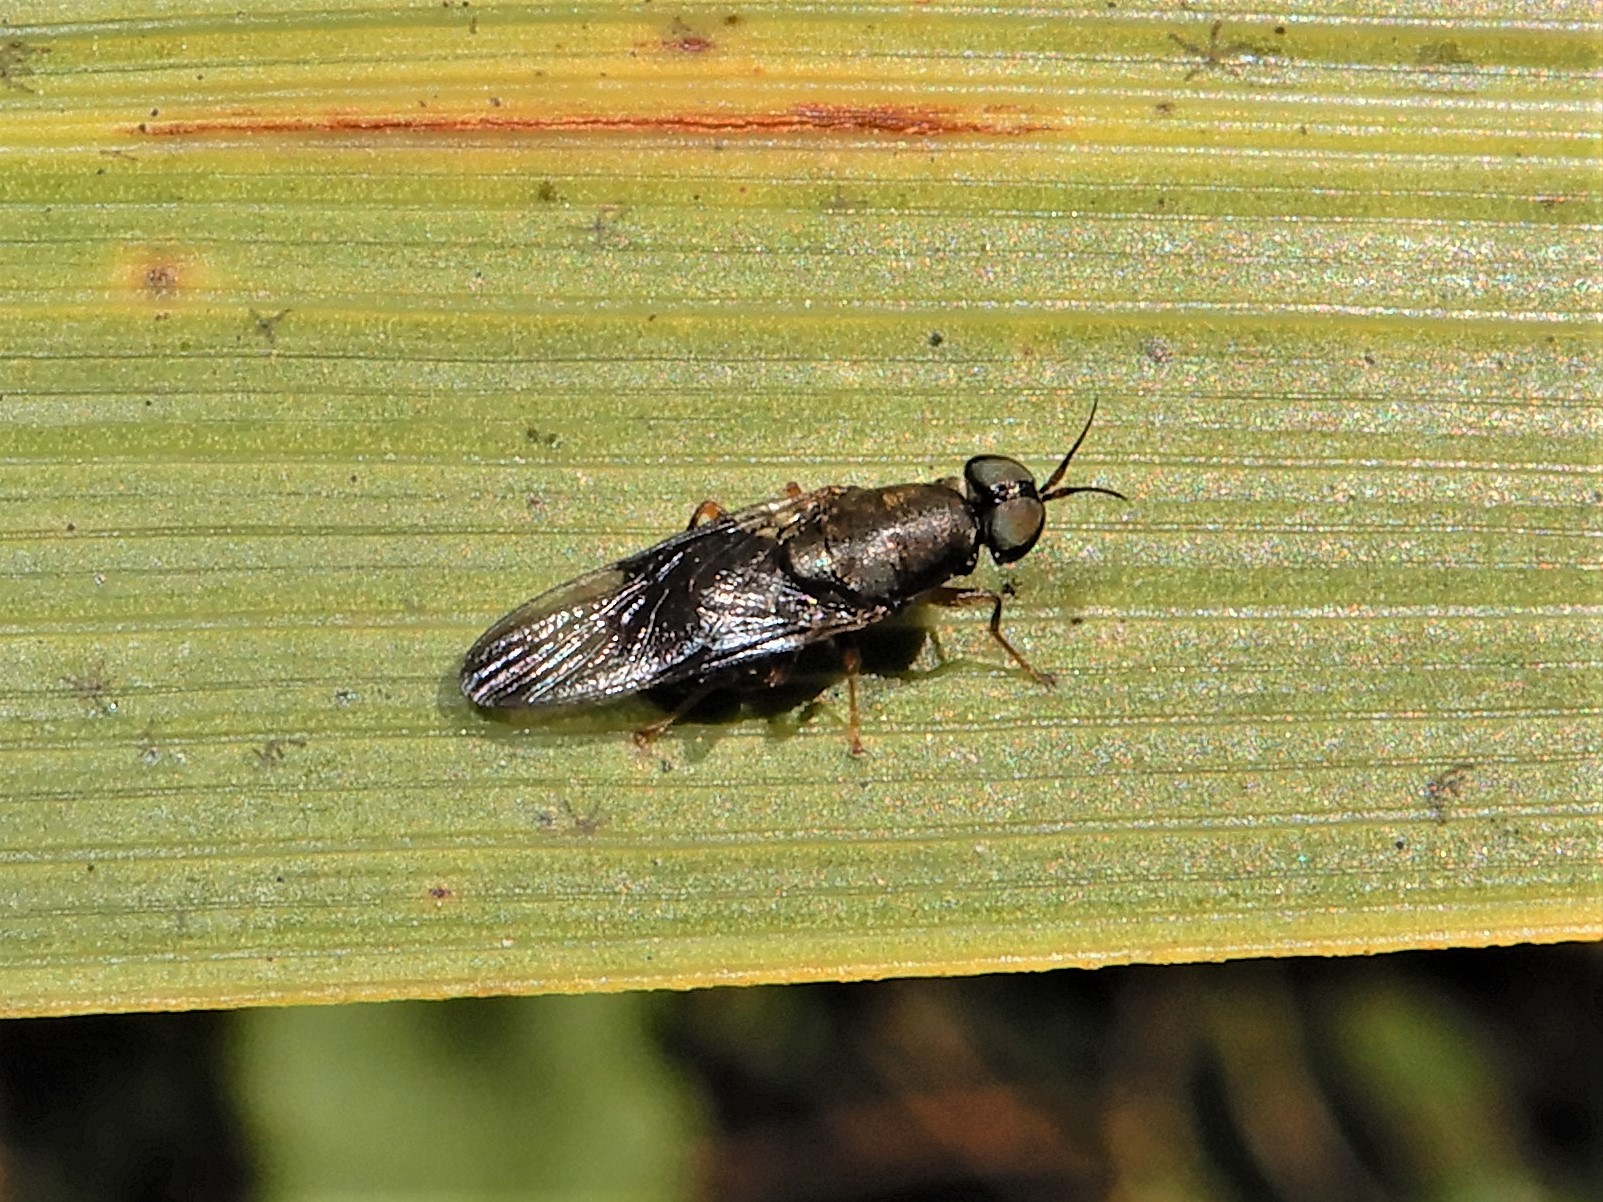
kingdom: Animalia
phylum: Arthropoda
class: Insecta
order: Diptera
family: Stratiomyidae
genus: Dysbiota
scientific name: Dysbiota peregrina
